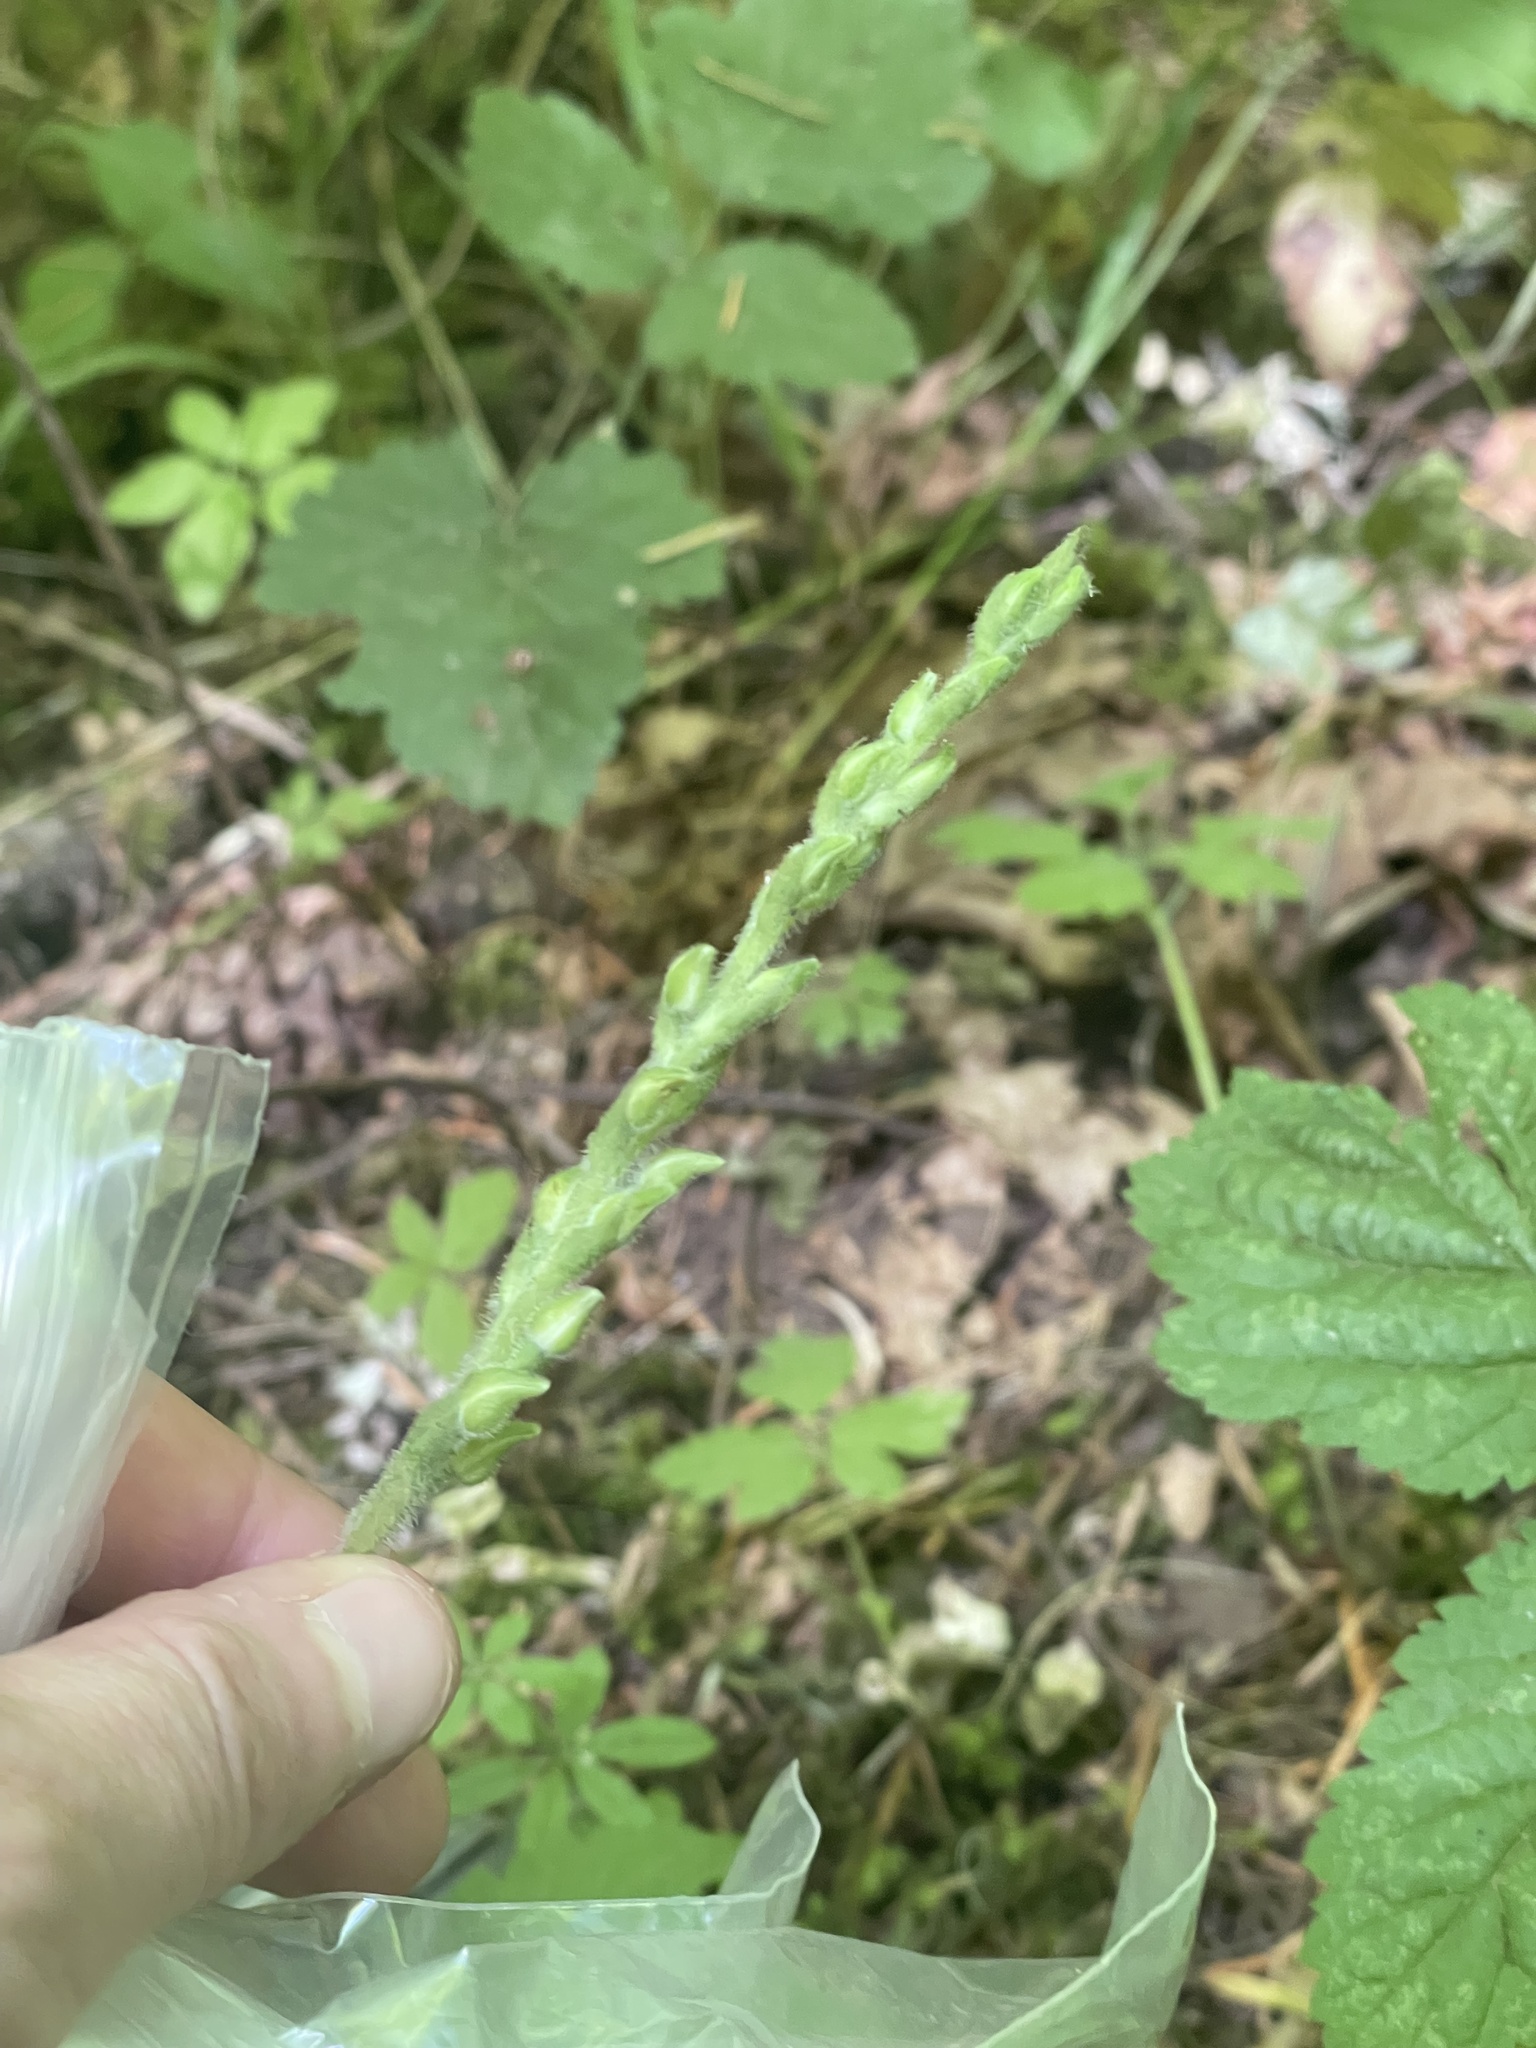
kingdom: Plantae
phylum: Tracheophyta
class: Liliopsida
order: Asparagales
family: Orchidaceae
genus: Goodyera
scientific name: Goodyera oblongifolia
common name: Giant rattlesnake-plantain
